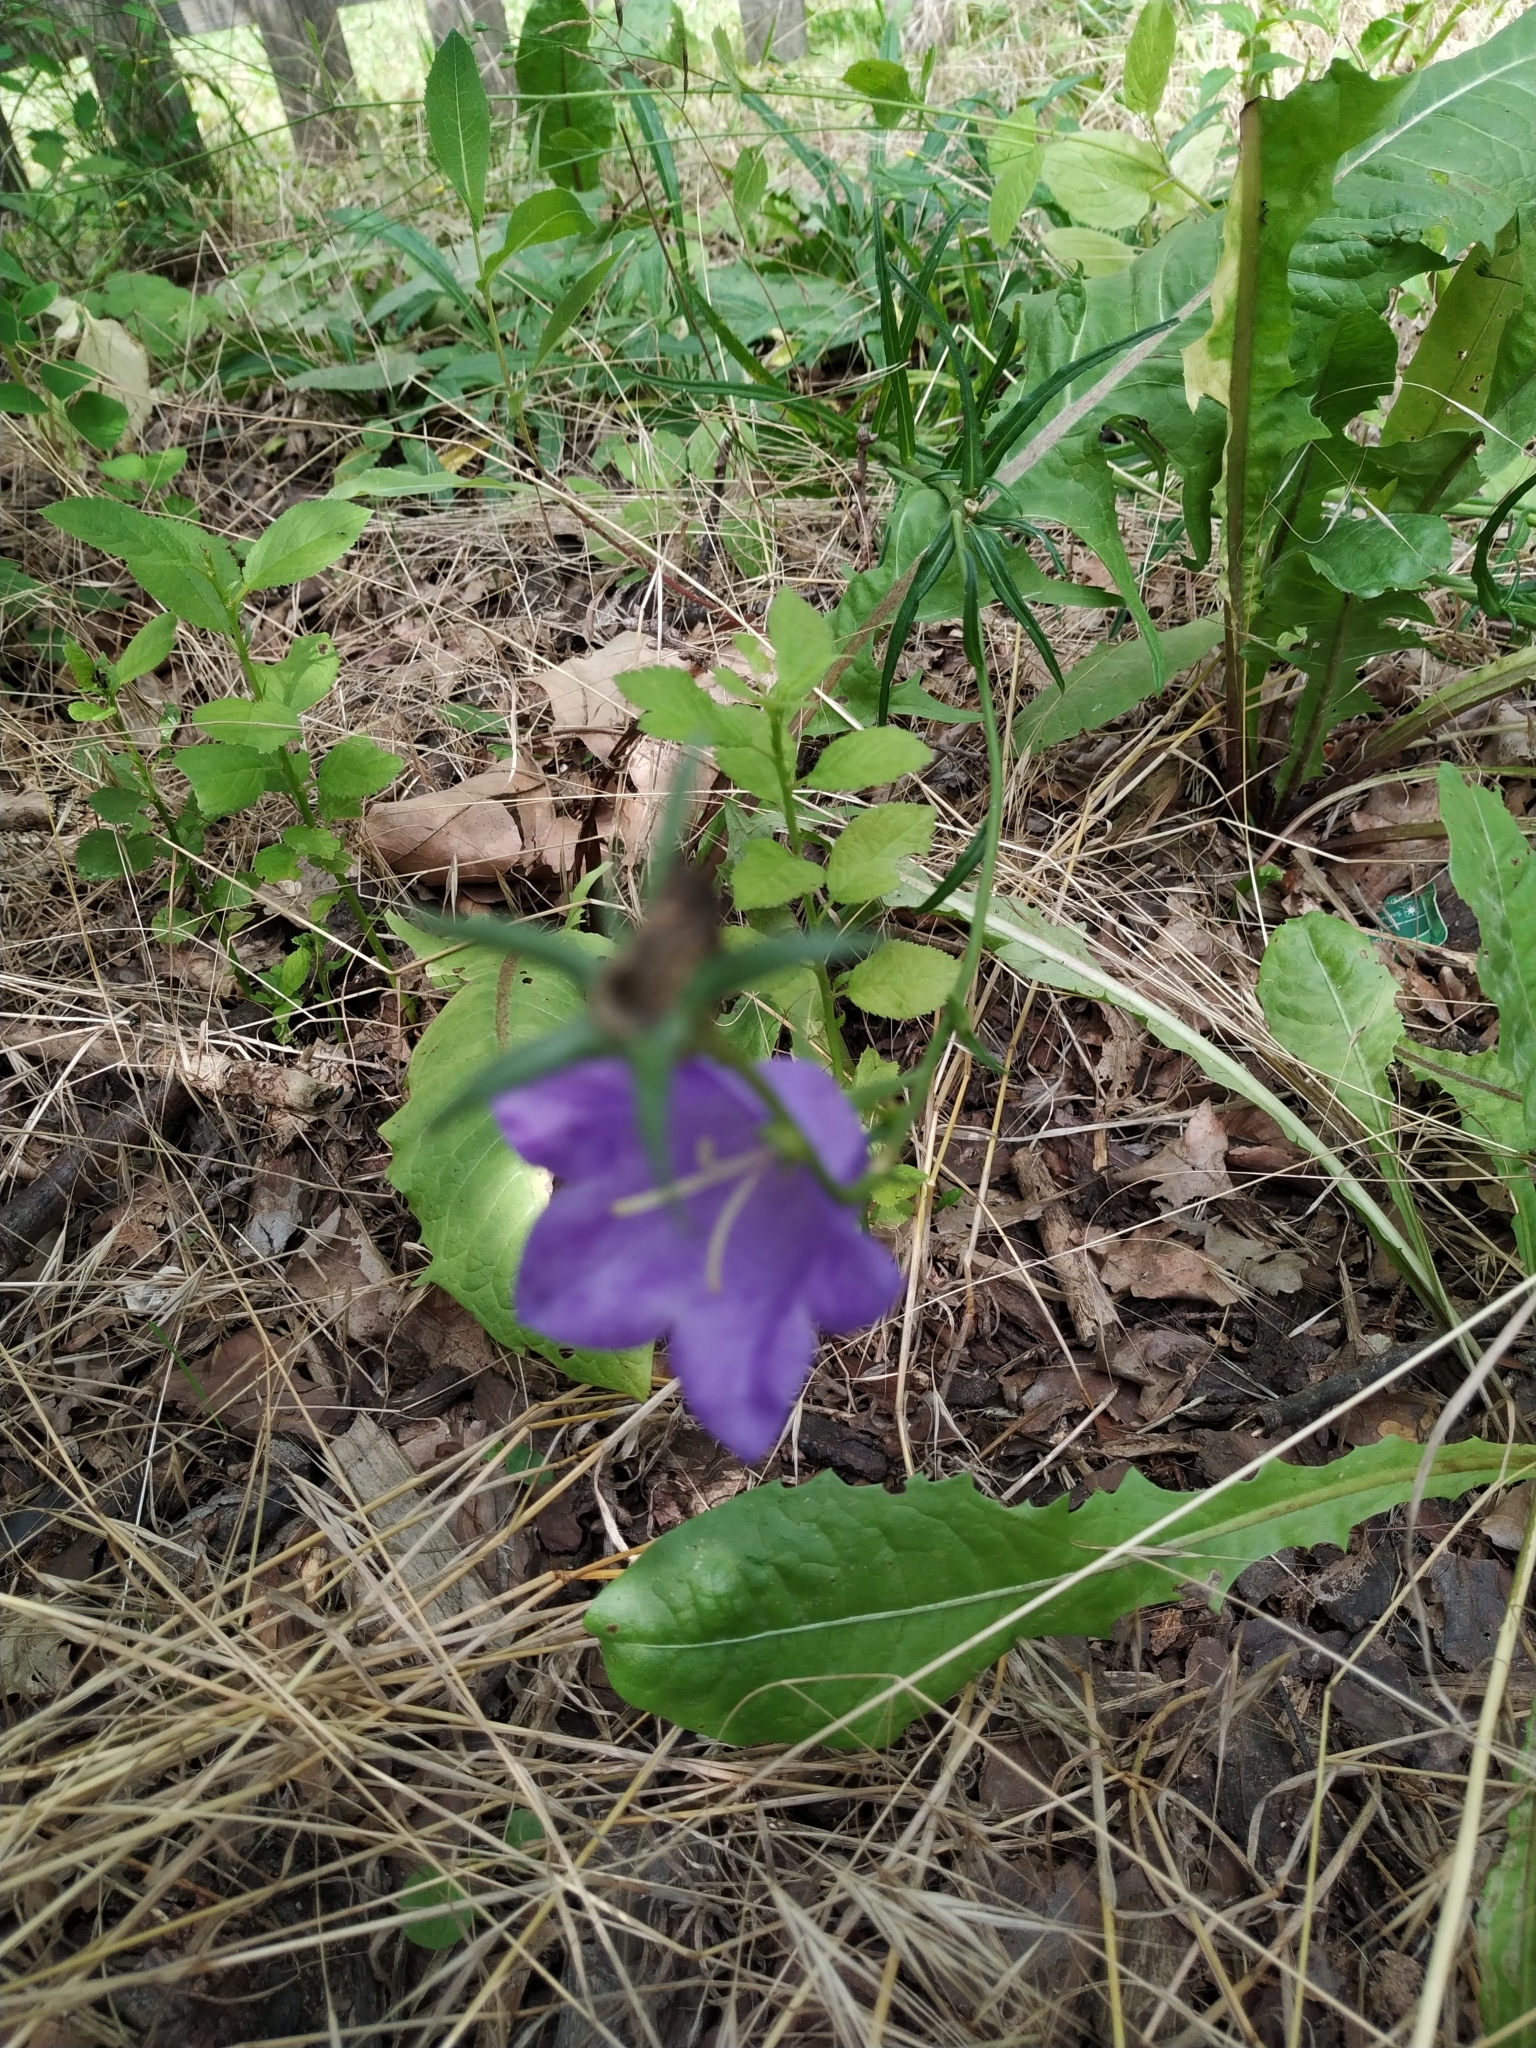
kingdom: Plantae
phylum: Tracheophyta
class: Magnoliopsida
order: Asterales
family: Campanulaceae
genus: Campanula
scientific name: Campanula persicifolia
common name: Peach-leaved bellflower
